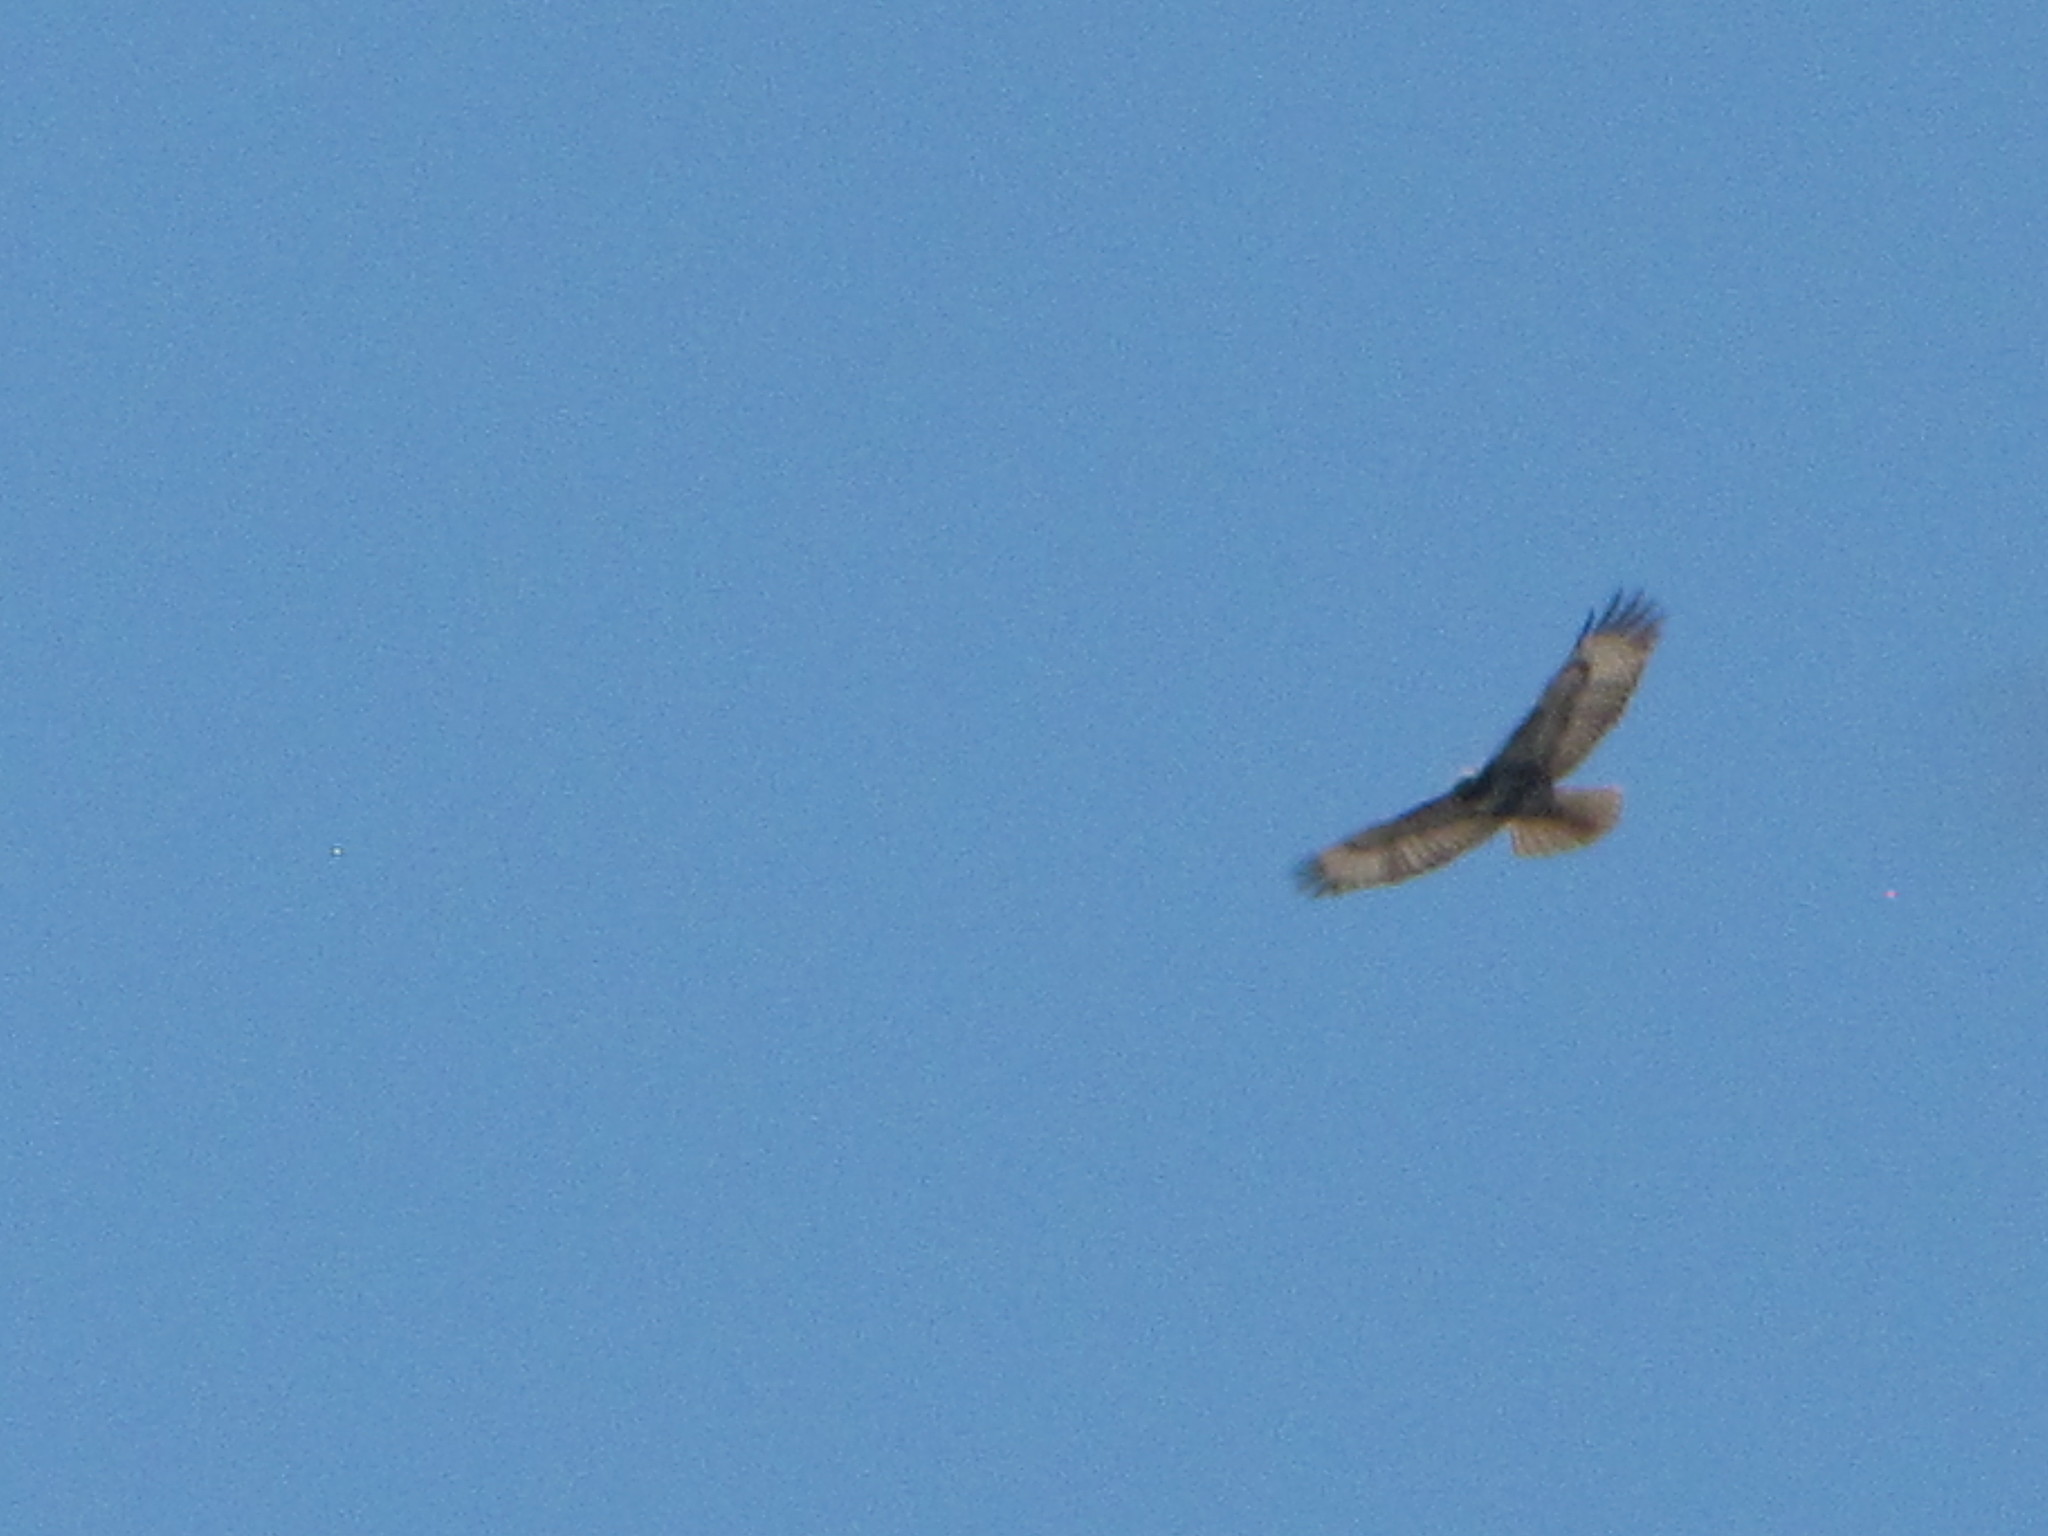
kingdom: Animalia
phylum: Chordata
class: Aves
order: Accipitriformes
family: Accipitridae
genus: Buteo
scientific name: Buteo jamaicensis
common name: Red-tailed hawk
